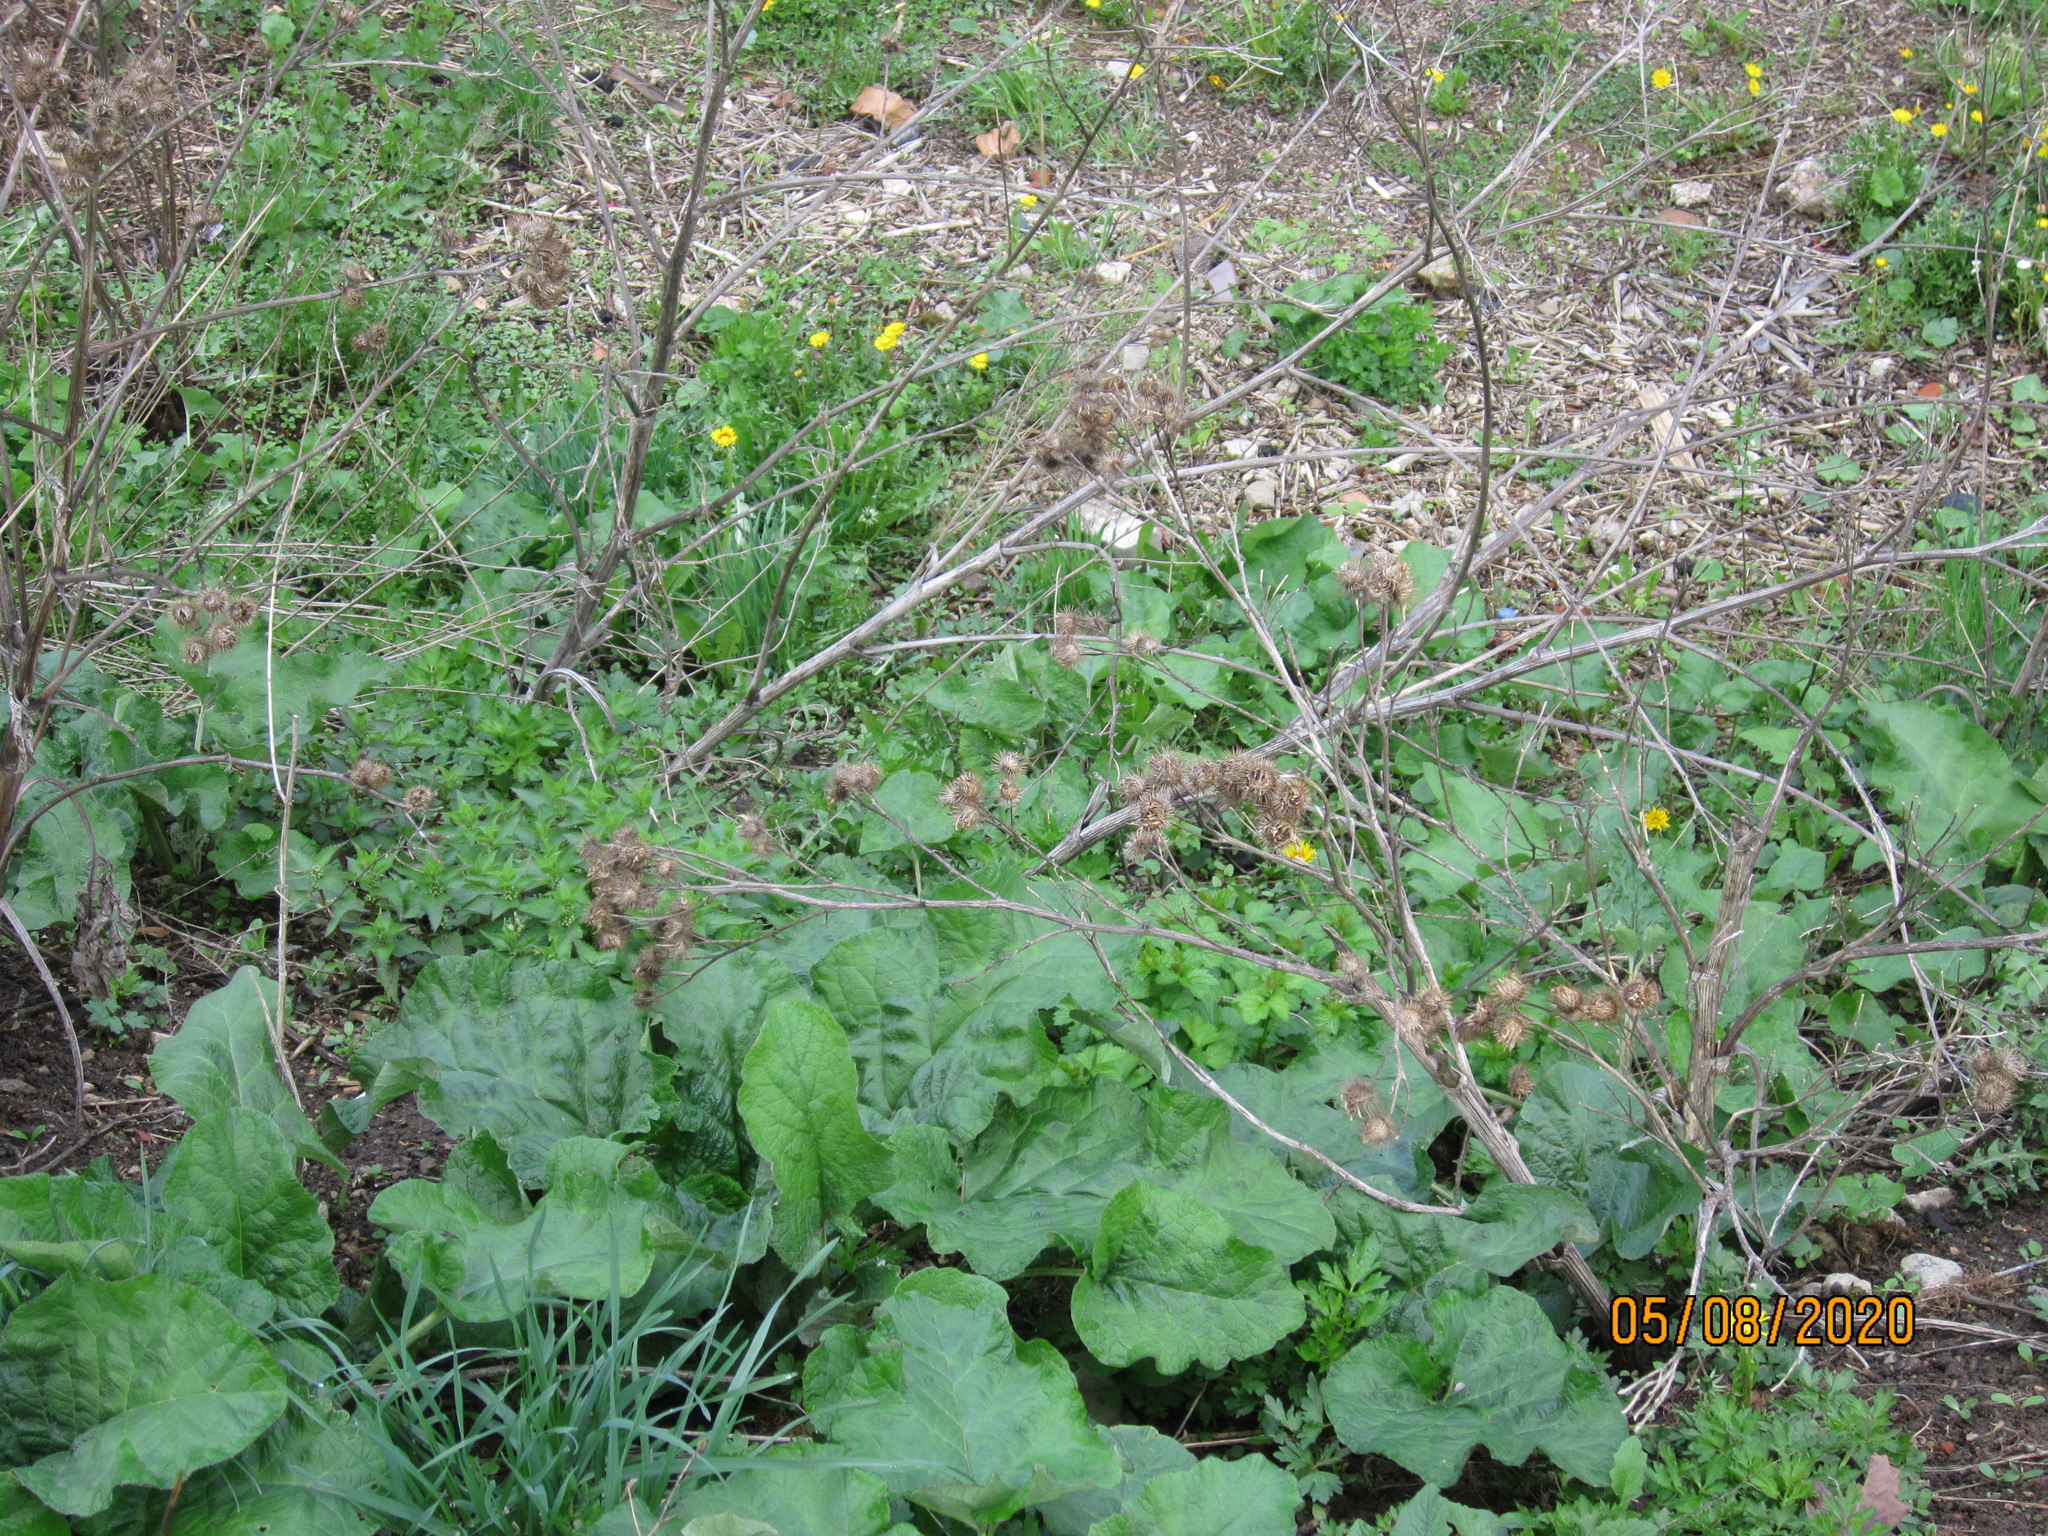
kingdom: Plantae
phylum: Tracheophyta
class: Magnoliopsida
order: Asterales
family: Asteraceae
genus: Arctium
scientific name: Arctium tomentosum
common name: Woolly burdock
